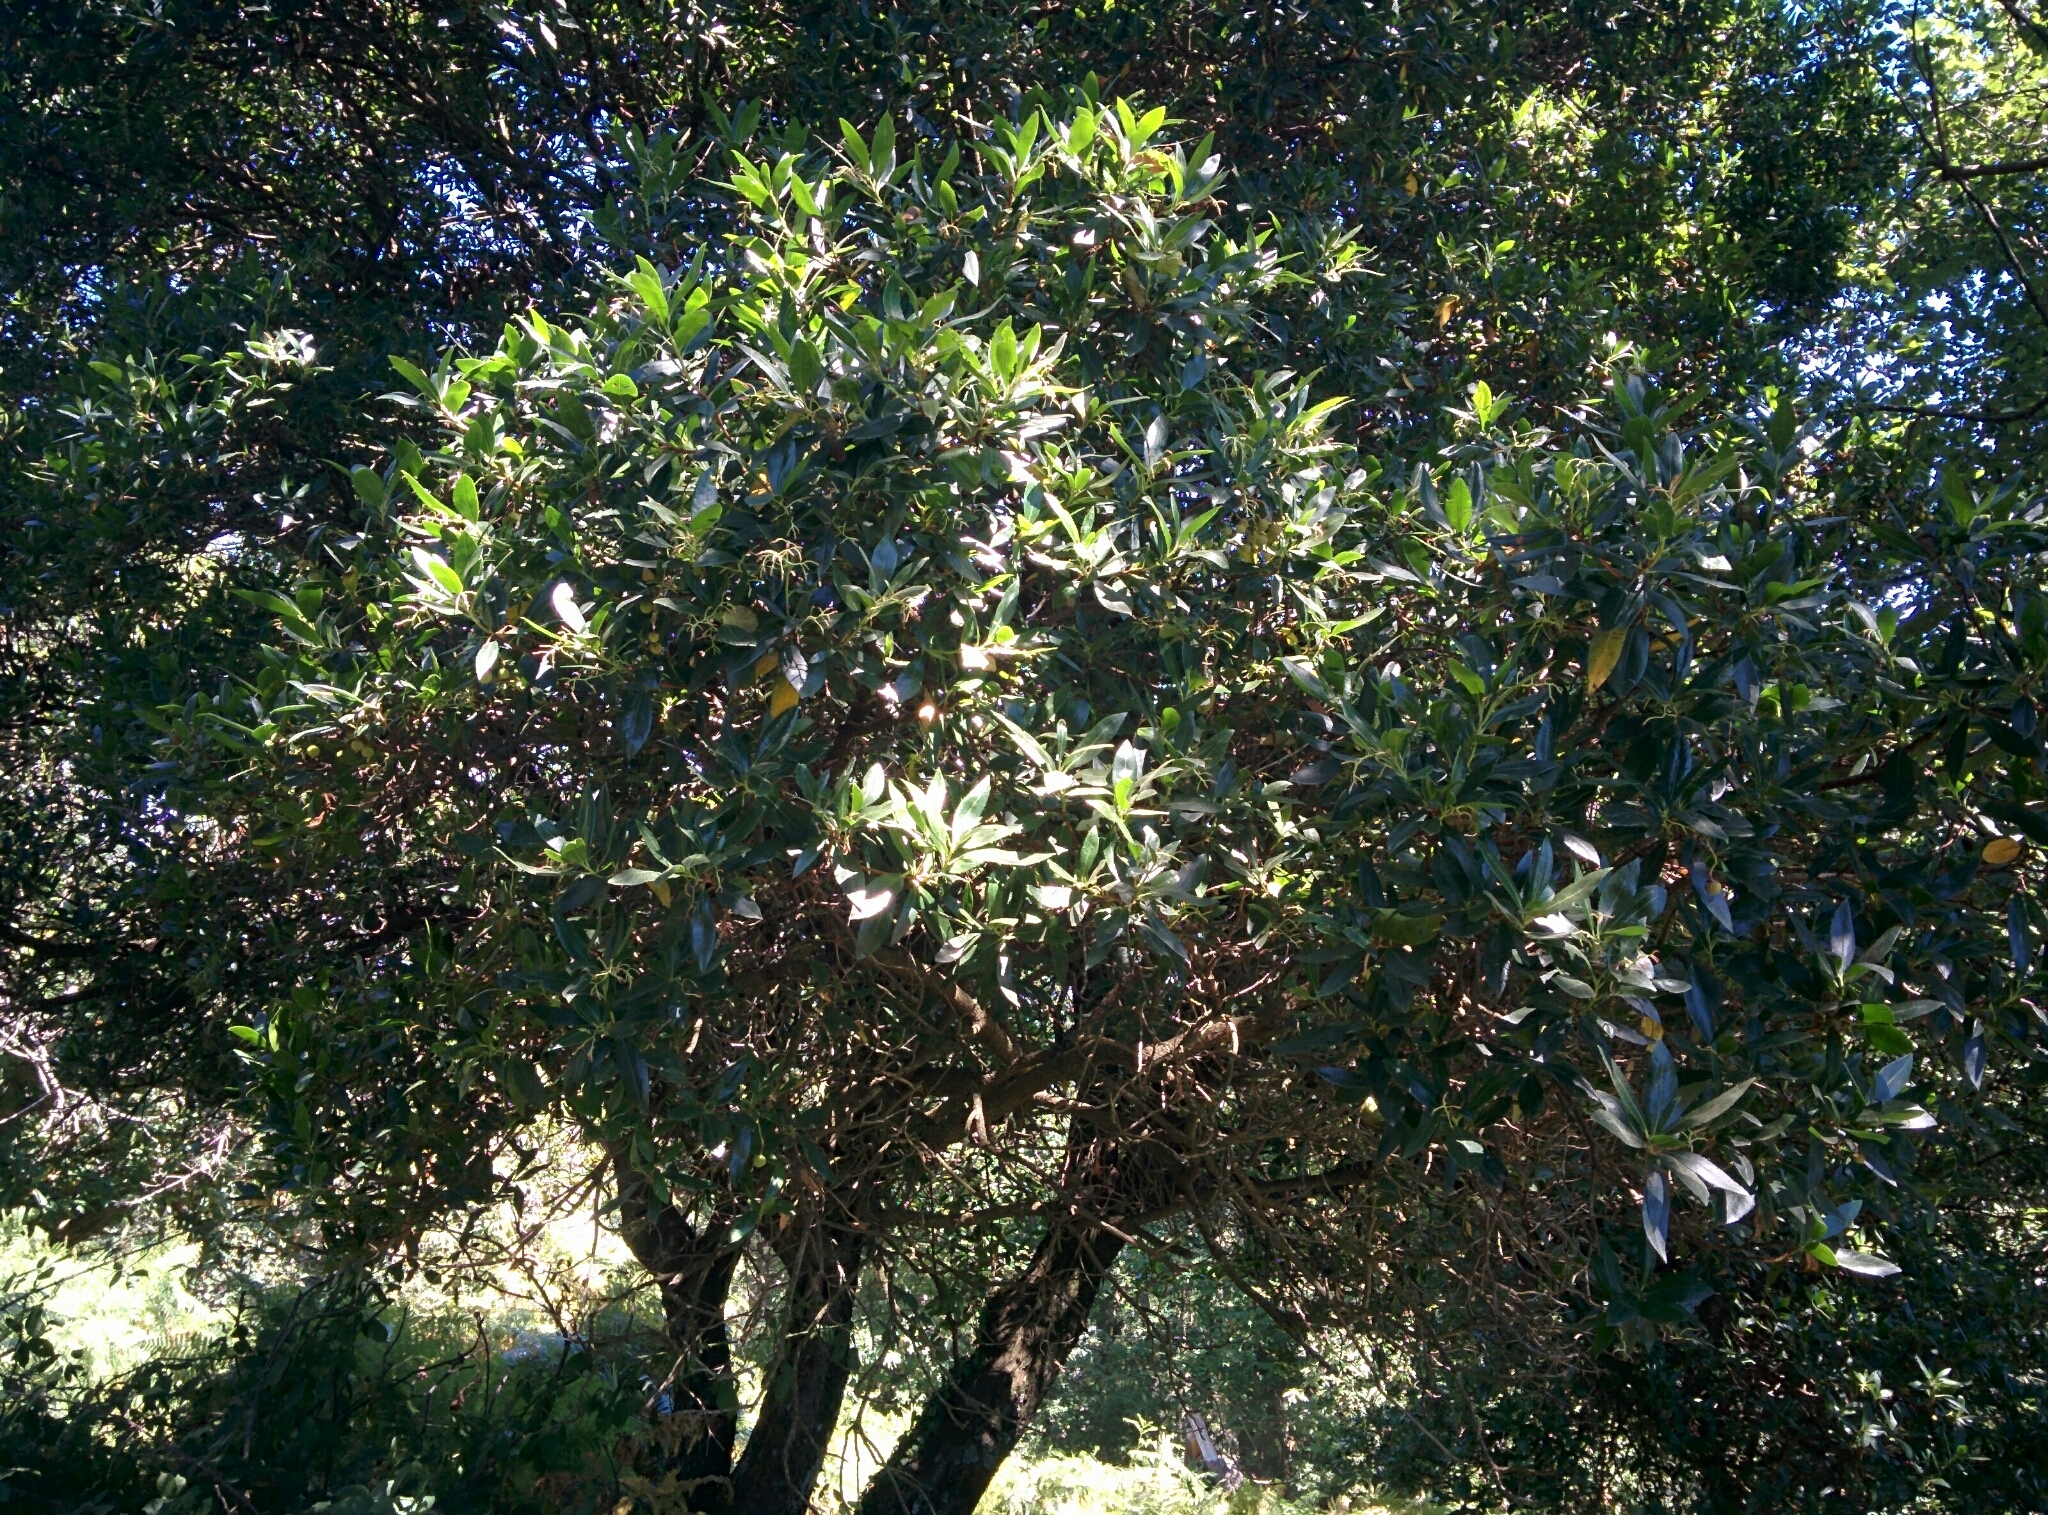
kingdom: Plantae
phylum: Tracheophyta
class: Magnoliopsida
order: Ericales
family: Ericaceae
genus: Arbutus
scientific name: Arbutus unedo
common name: Strawberry-tree
